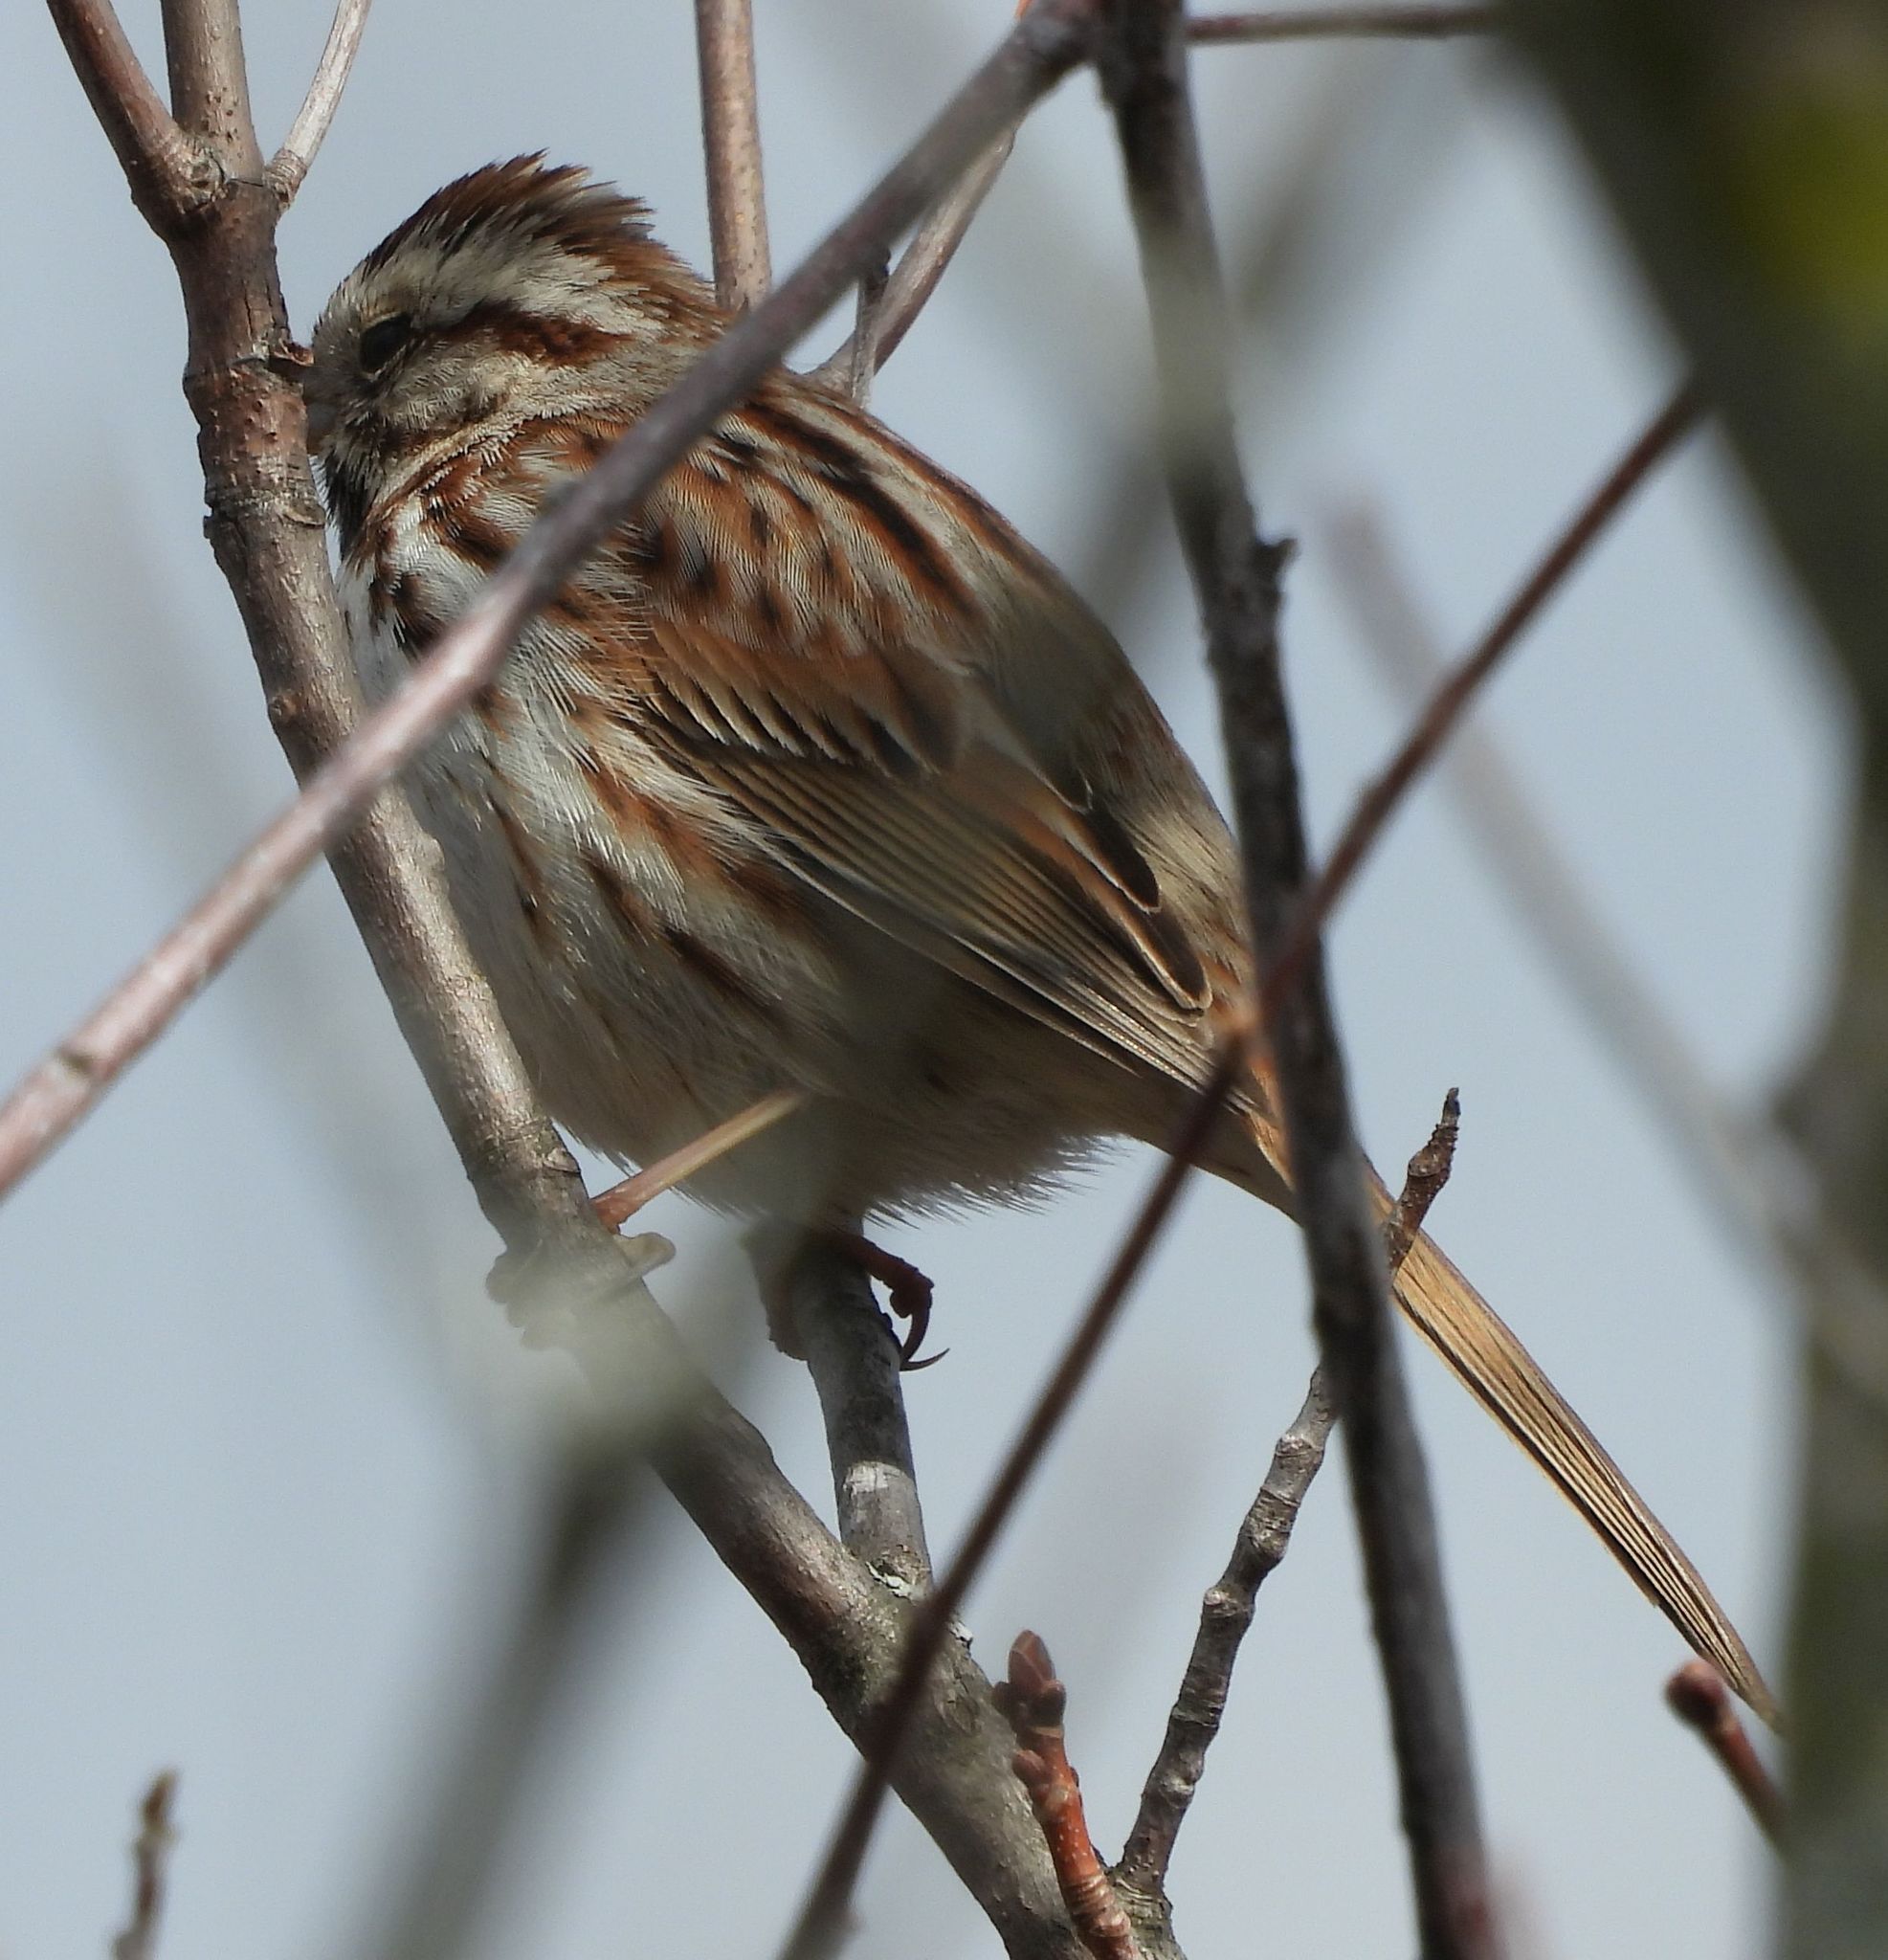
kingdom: Animalia
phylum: Chordata
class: Aves
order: Passeriformes
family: Passerellidae
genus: Melospiza
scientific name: Melospiza melodia
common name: Song sparrow
